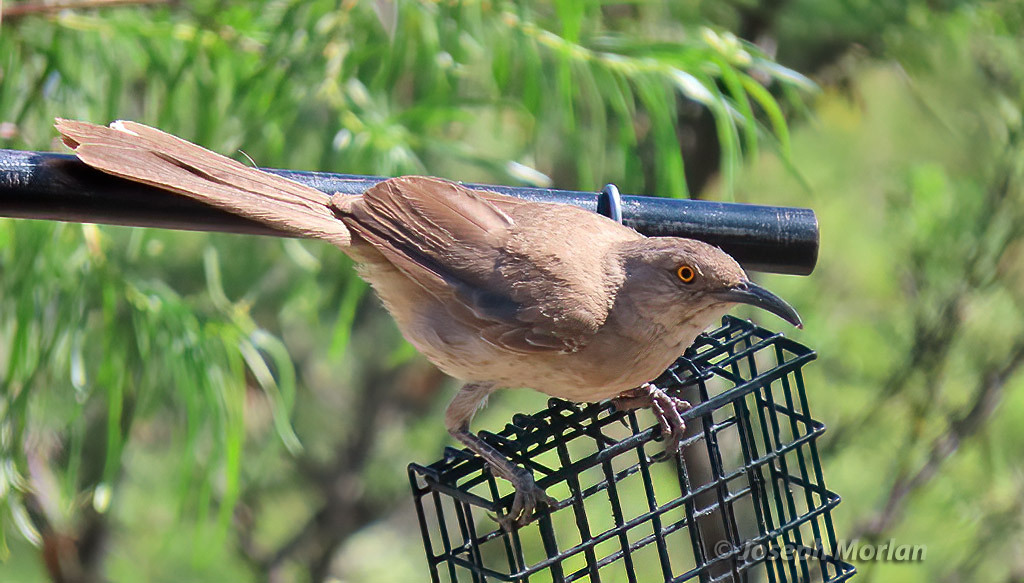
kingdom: Animalia
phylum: Chordata
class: Aves
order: Passeriformes
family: Mimidae
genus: Toxostoma
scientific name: Toxostoma curvirostre
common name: Curve-billed thrasher
